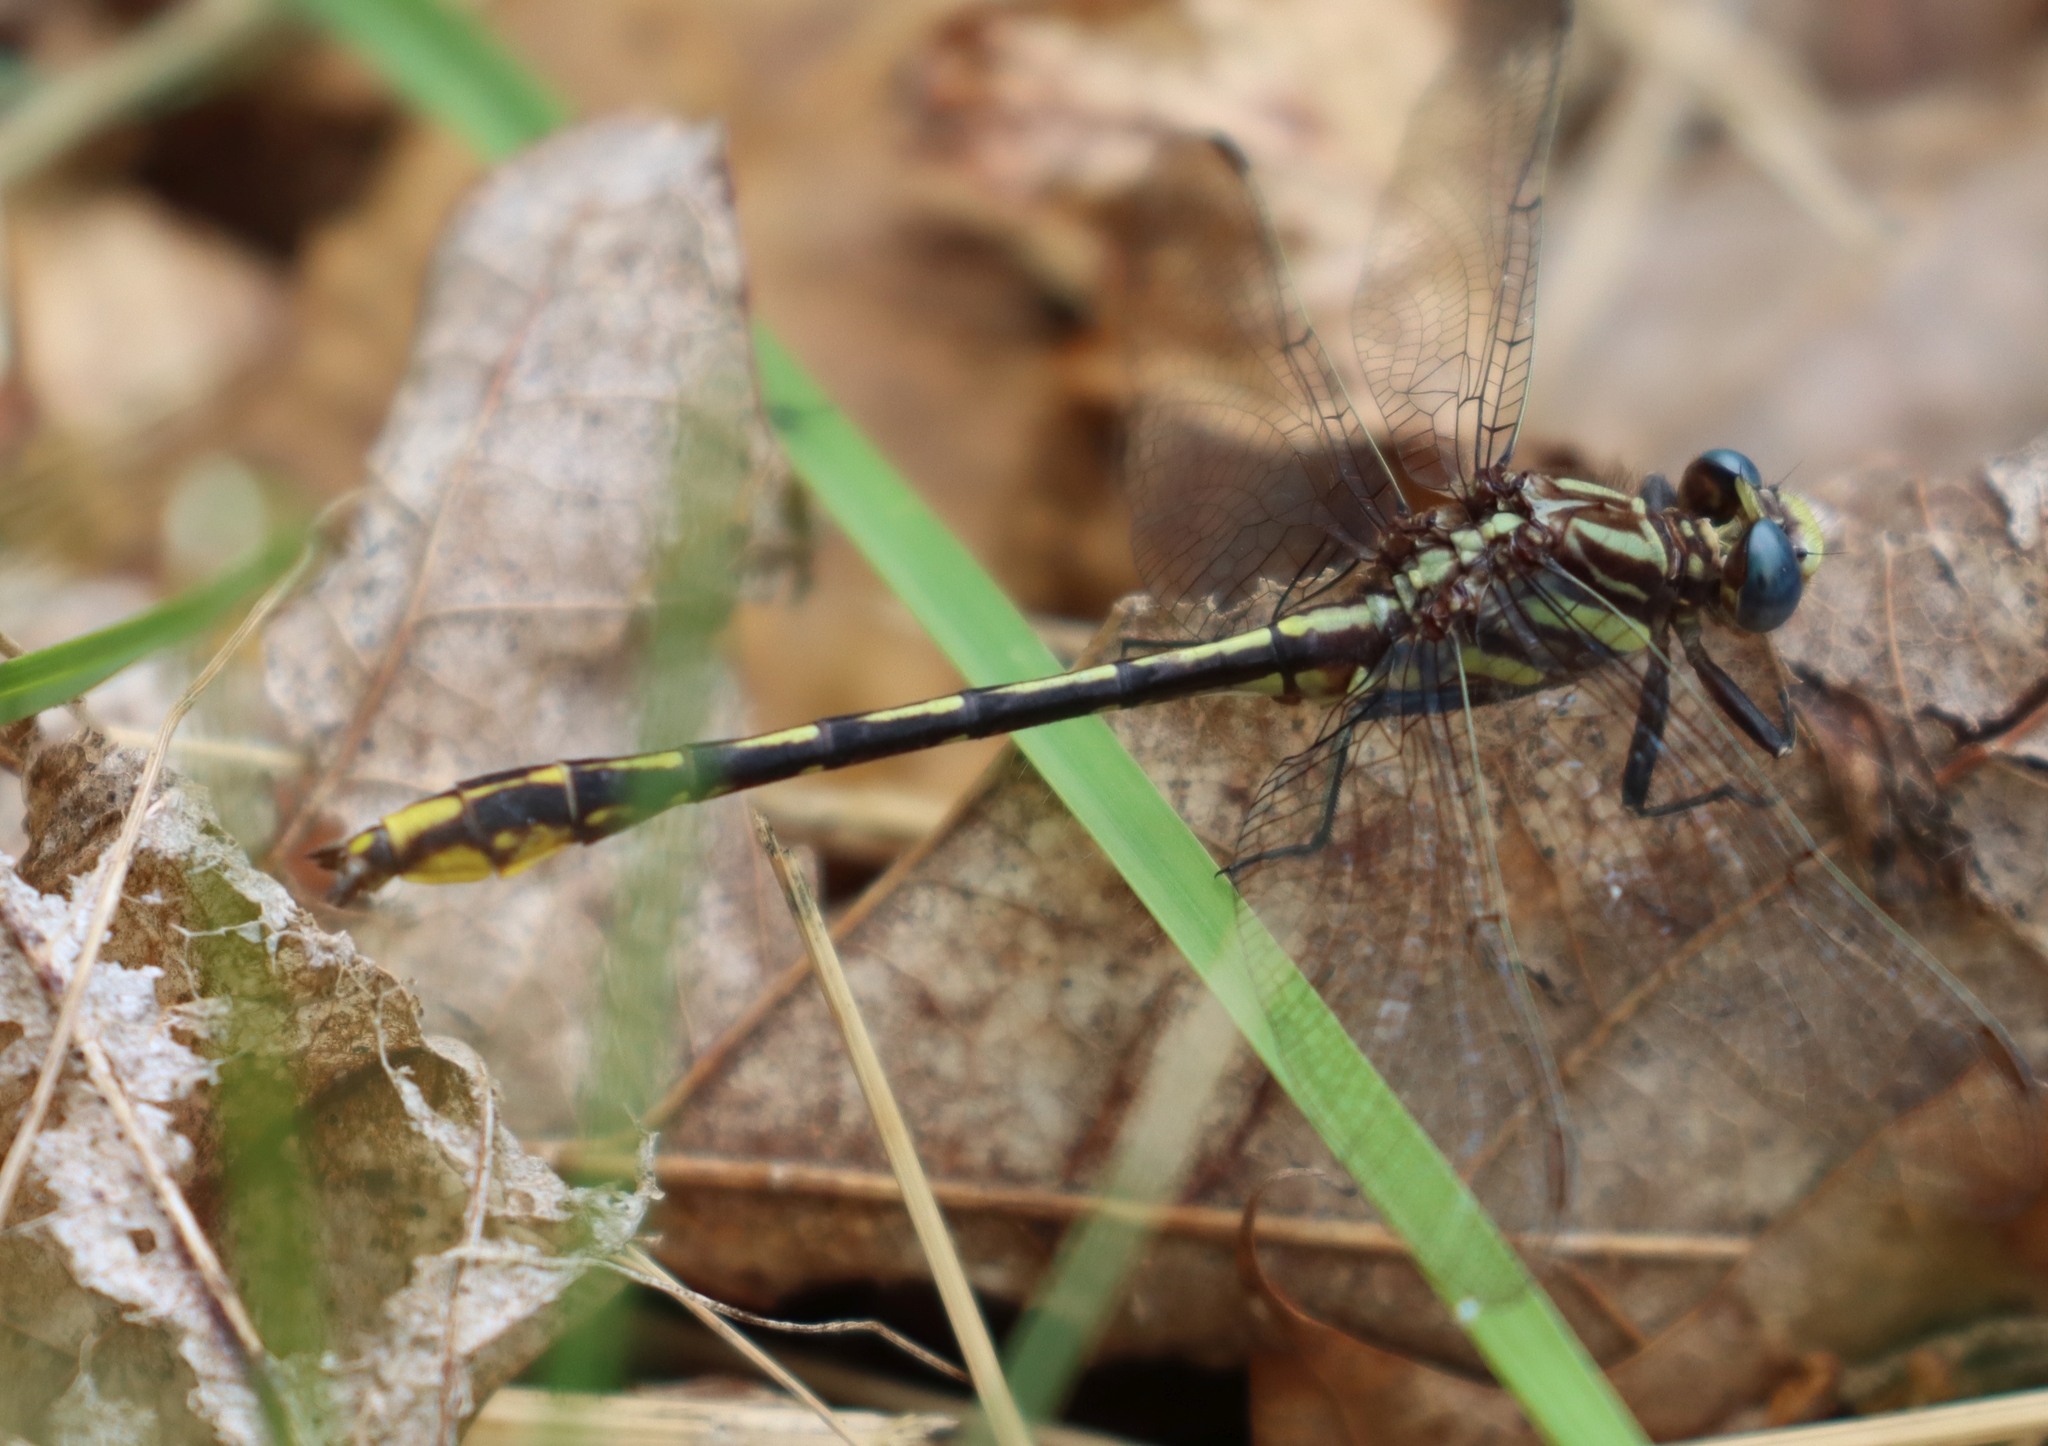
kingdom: Animalia
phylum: Arthropoda
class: Insecta
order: Odonata
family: Gomphidae
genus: Phanogomphus
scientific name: Phanogomphus exilis
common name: Lancet clubtail
